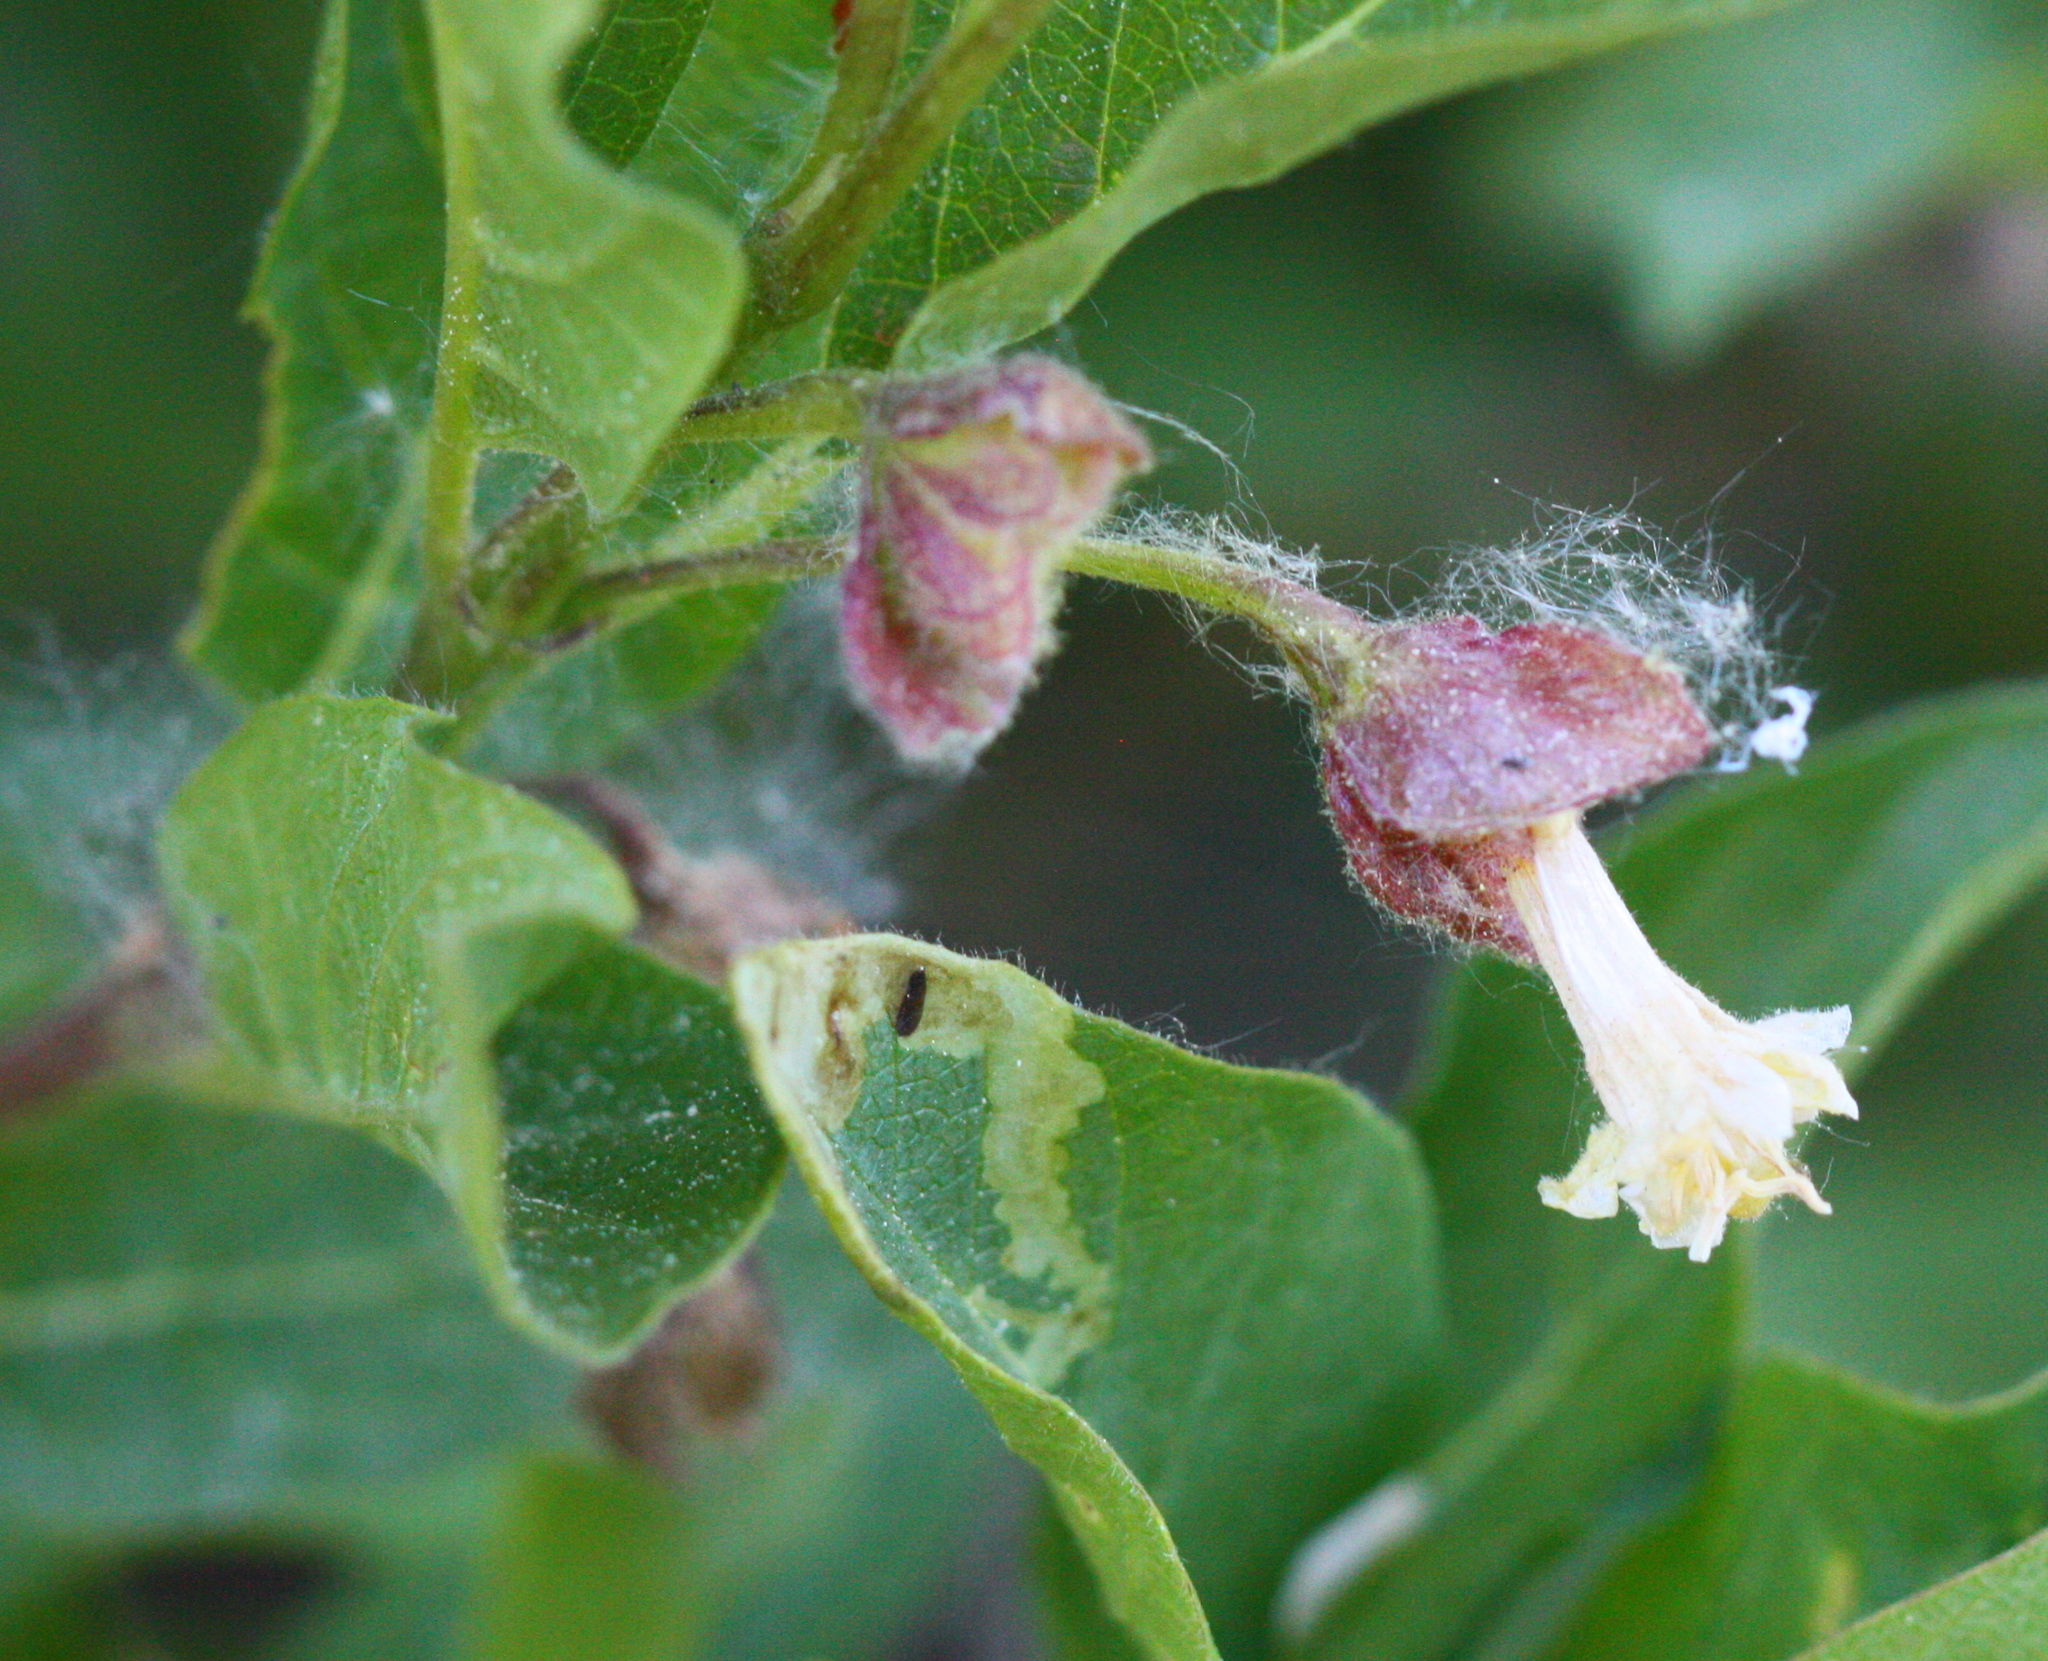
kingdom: Plantae
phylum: Tracheophyta
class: Magnoliopsida
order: Dipsacales
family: Caprifoliaceae
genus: Lonicera
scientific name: Lonicera involucrata
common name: Californian honeysuckle
